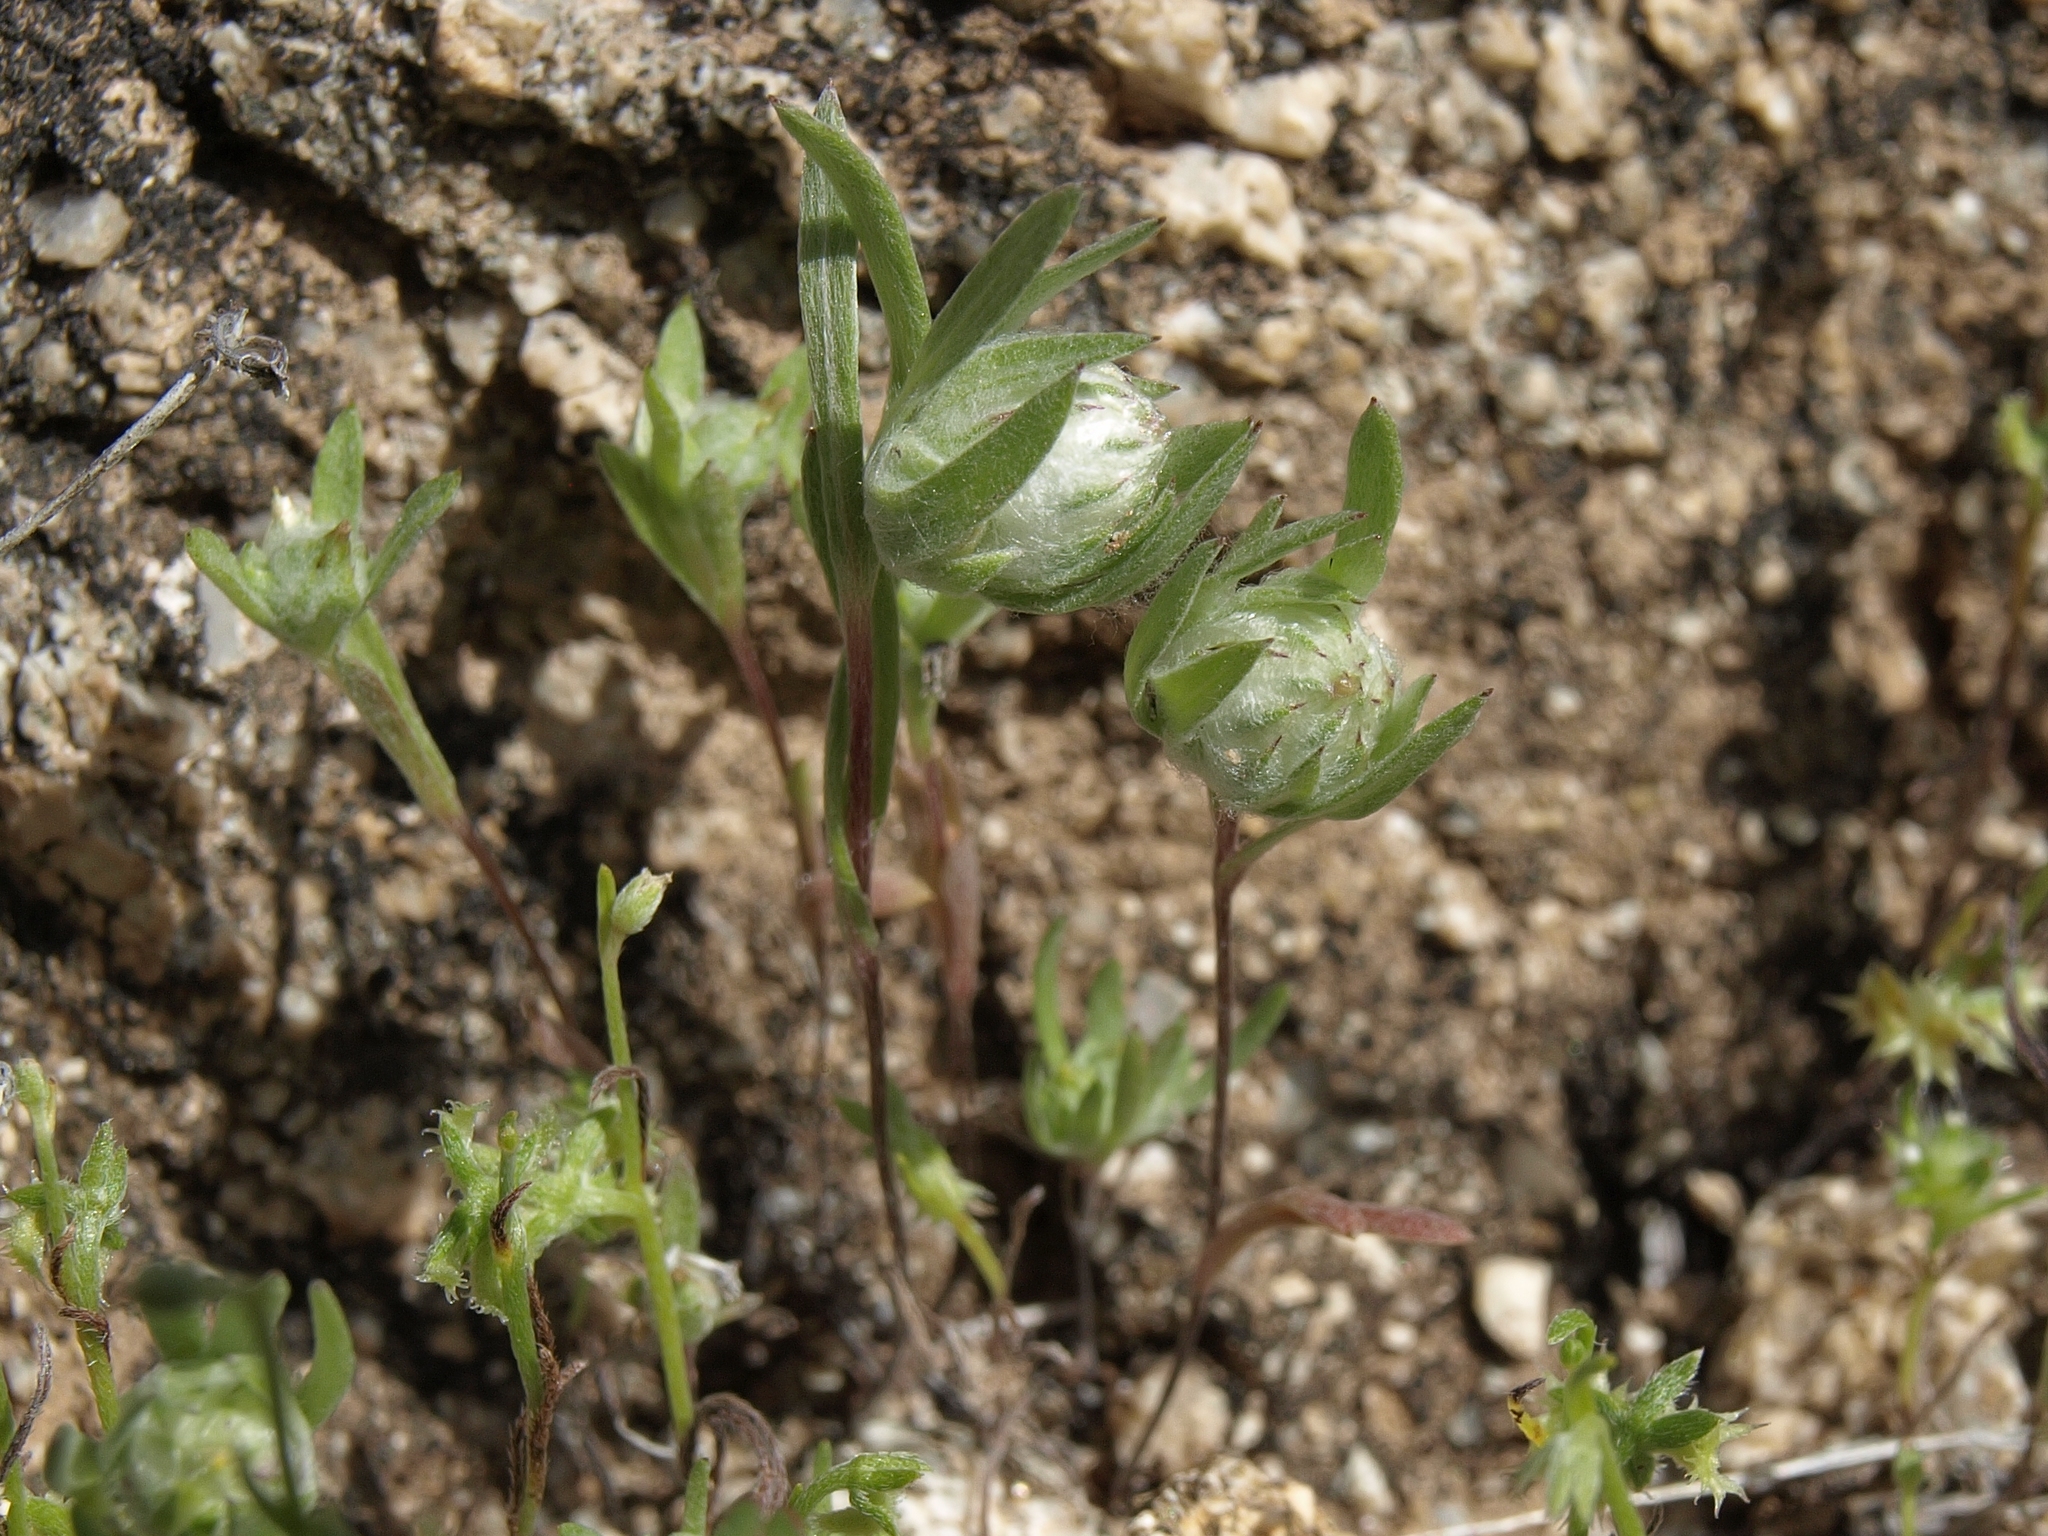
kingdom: Plantae
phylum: Tracheophyta
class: Magnoliopsida
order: Asterales
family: Asteraceae
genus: Stylocline
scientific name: Stylocline micropoides
